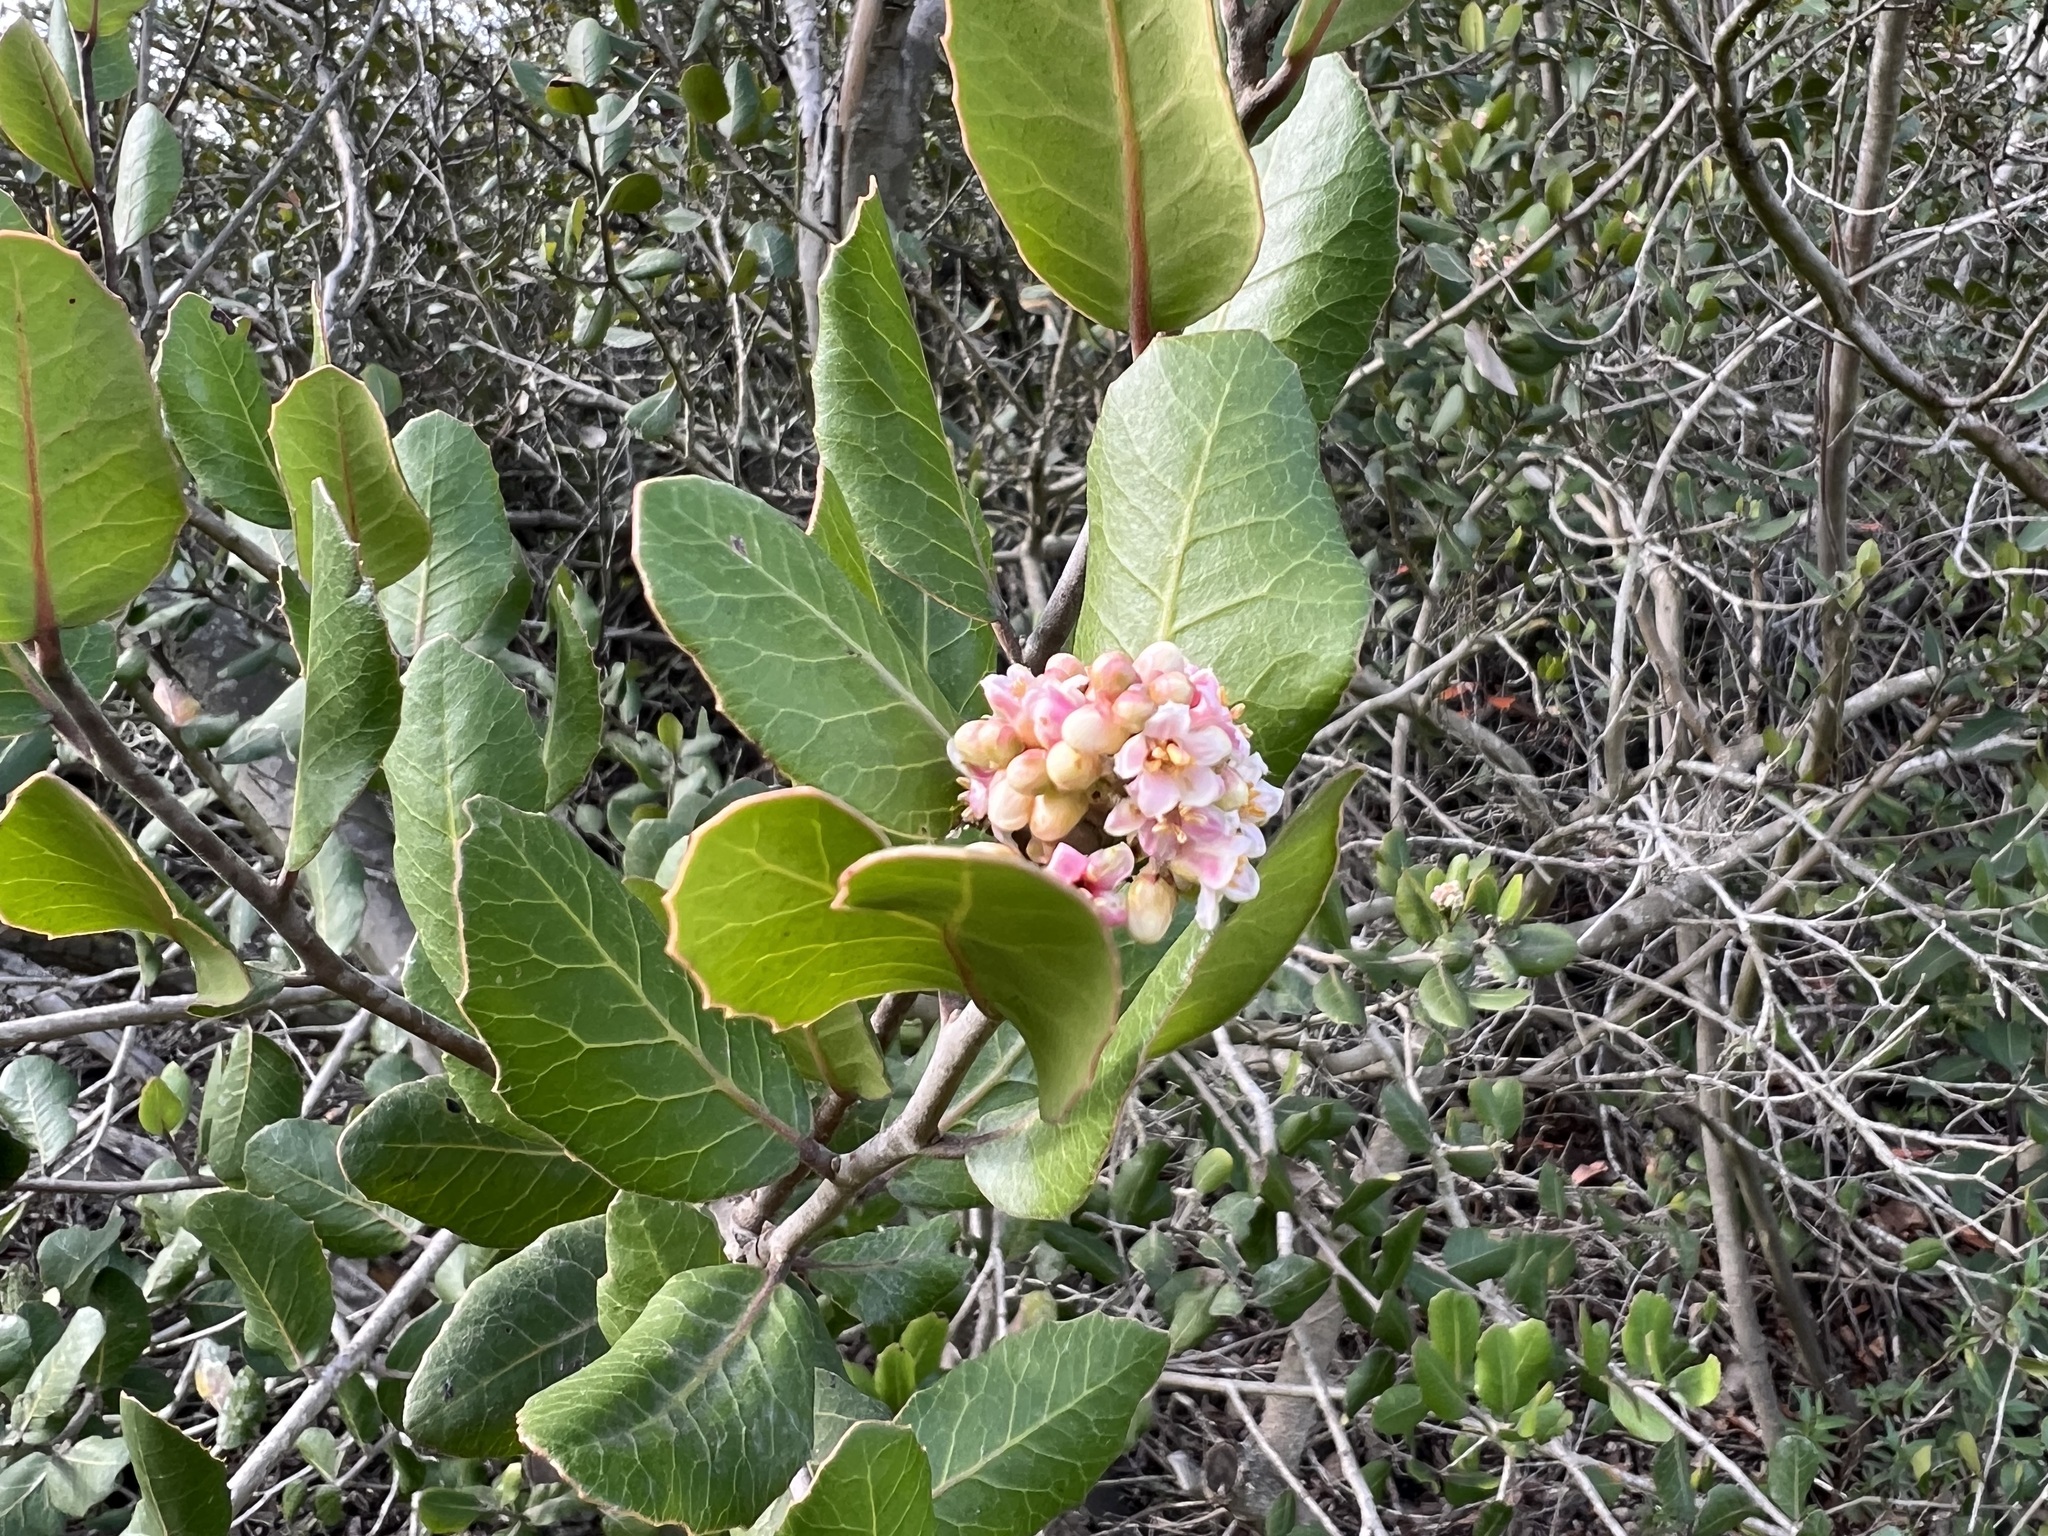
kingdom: Plantae
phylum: Tracheophyta
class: Magnoliopsida
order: Sapindales
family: Anacardiaceae
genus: Rhus
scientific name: Rhus integrifolia
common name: Lemonade sumac
